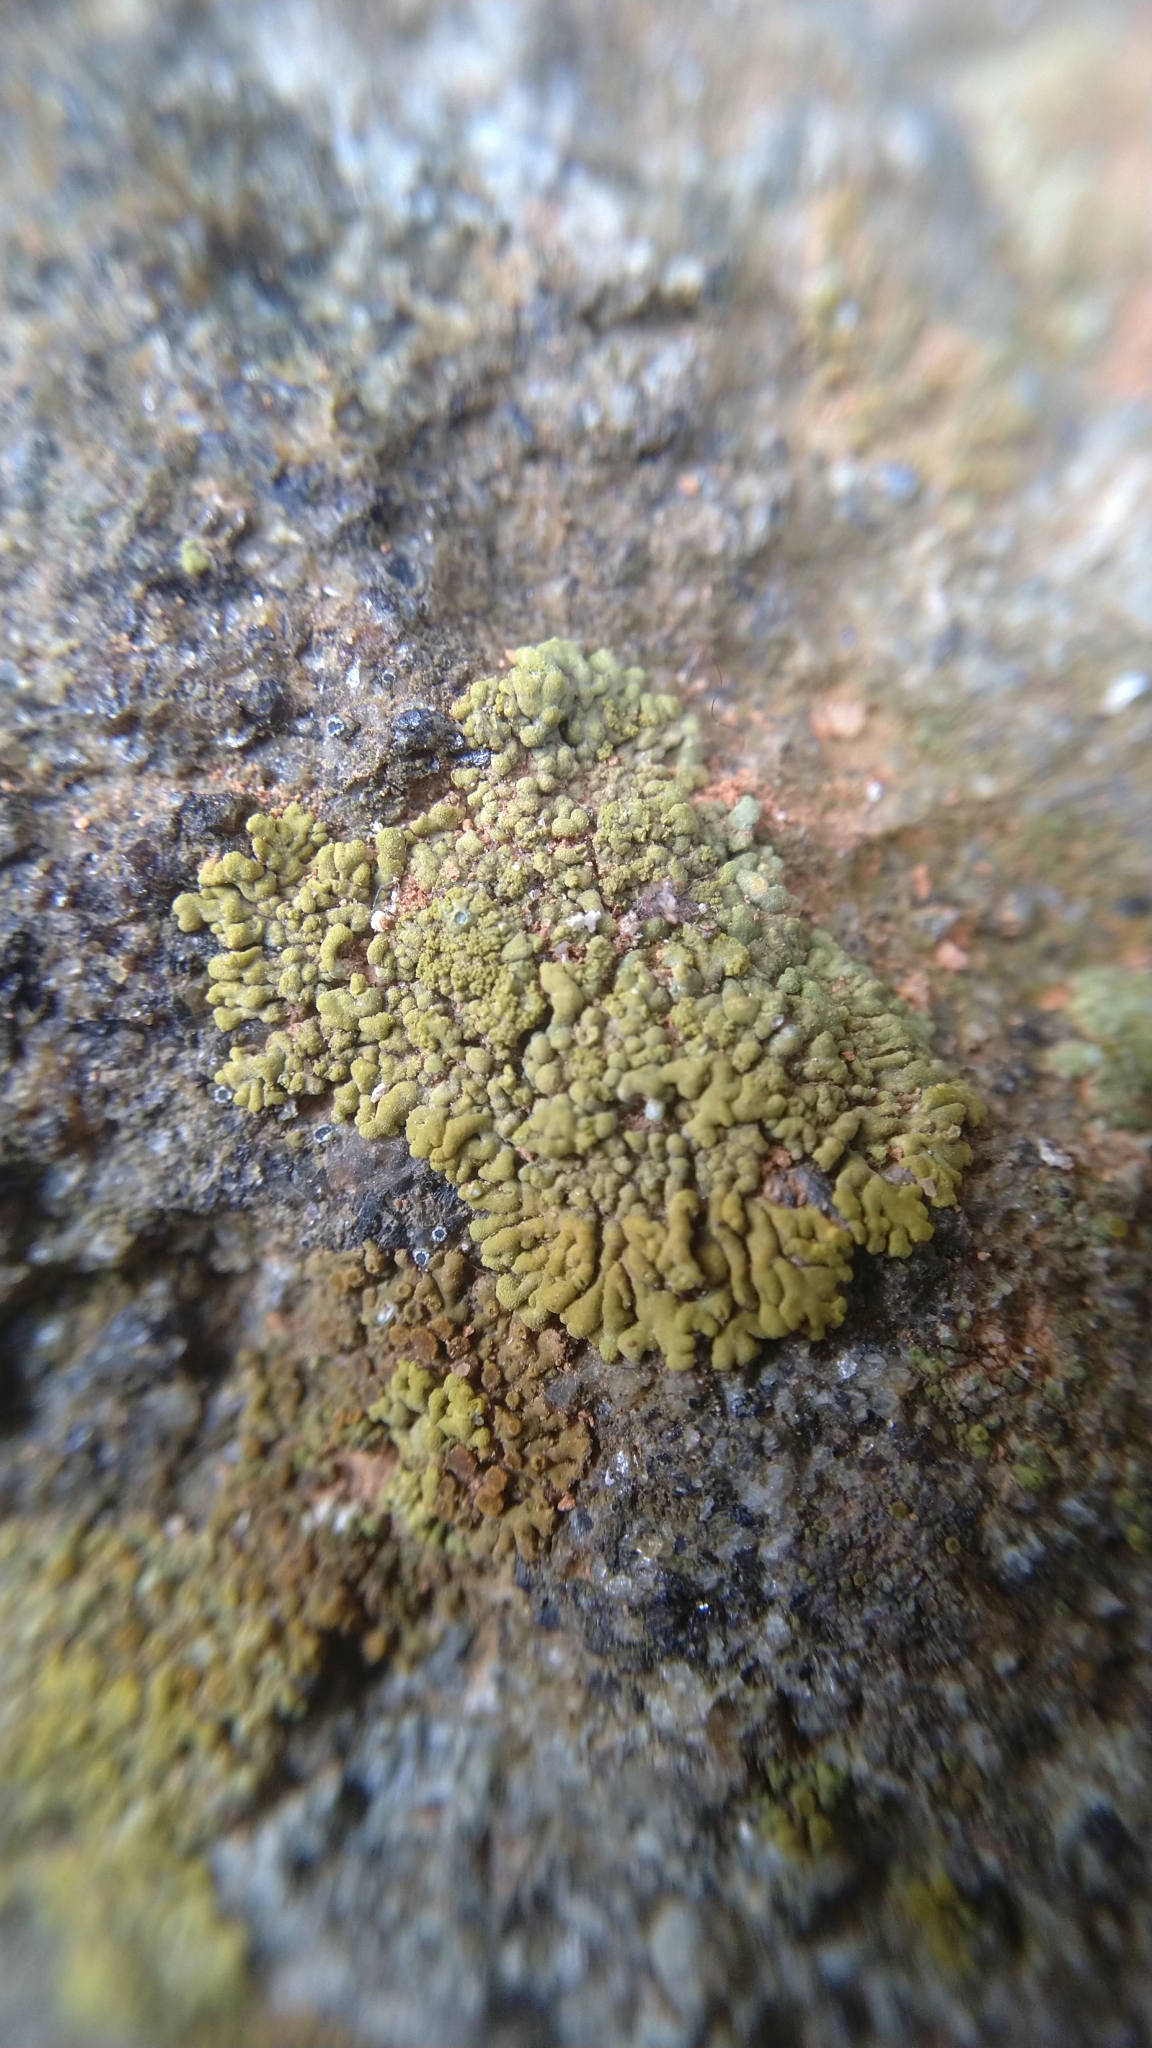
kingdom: Fungi
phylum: Ascomycota
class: Lecanoromycetes
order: Teloschistales
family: Teloschistaceae
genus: Calogaya
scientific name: Calogaya decipiens
